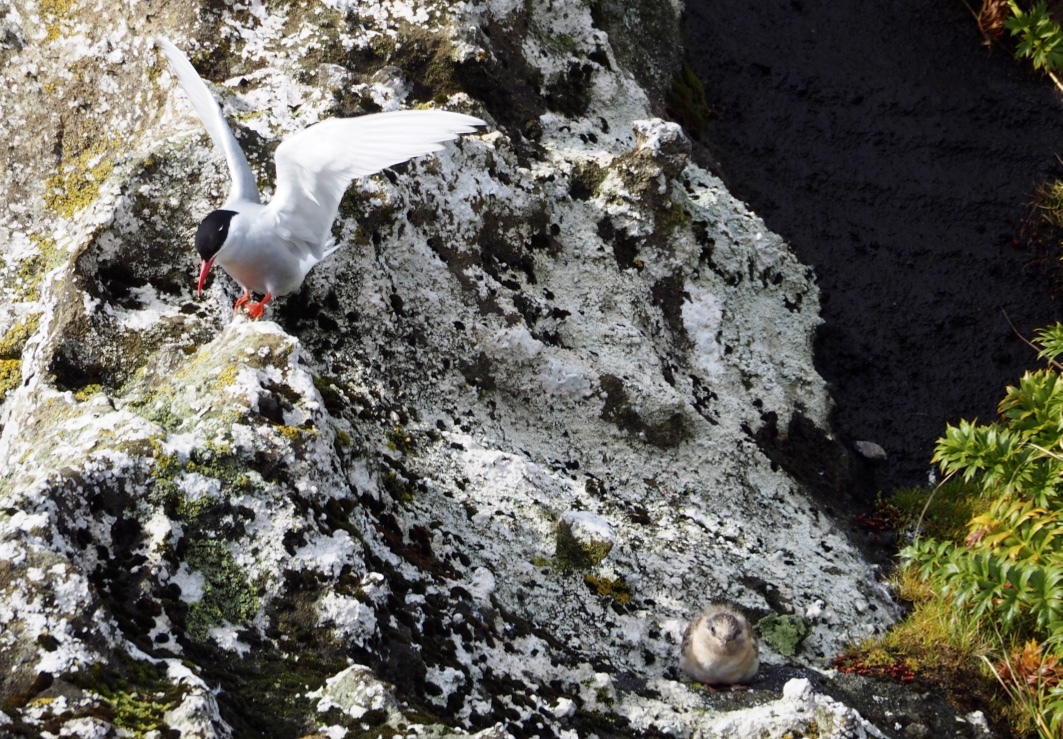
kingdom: Animalia
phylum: Chordata
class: Aves
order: Charadriiformes
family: Laridae
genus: Sterna
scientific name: Sterna vittata
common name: Antarctic tern
